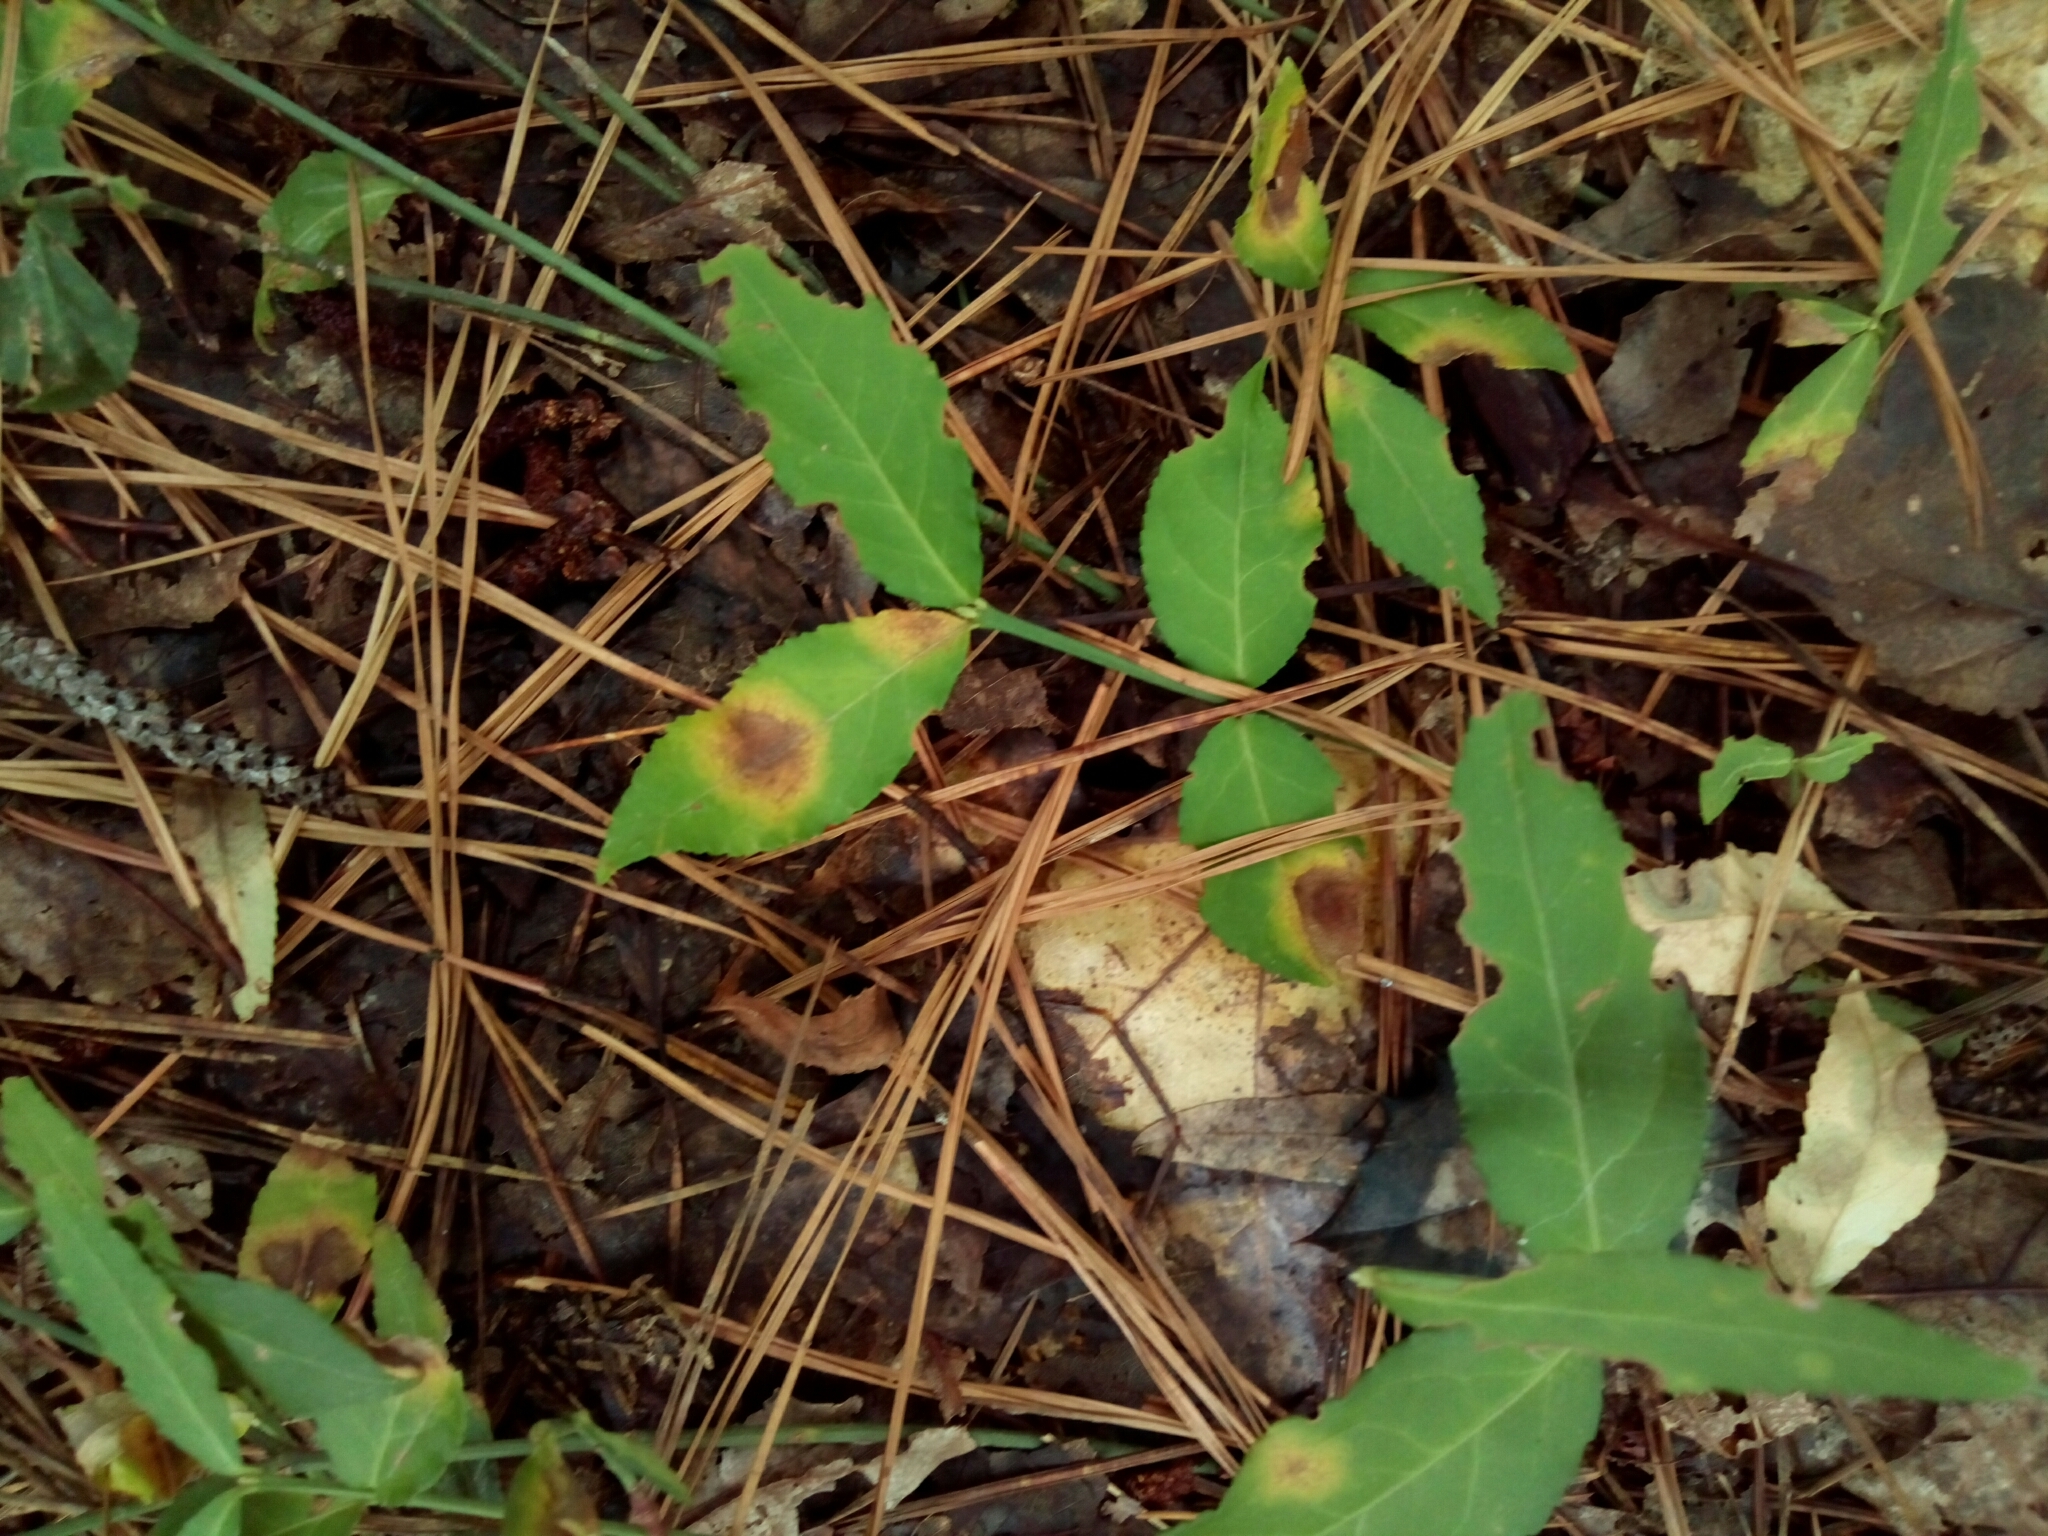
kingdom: Plantae
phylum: Tracheophyta
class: Magnoliopsida
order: Celastrales
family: Celastraceae
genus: Euonymus
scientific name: Euonymus americanus
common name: Bursting-heart
